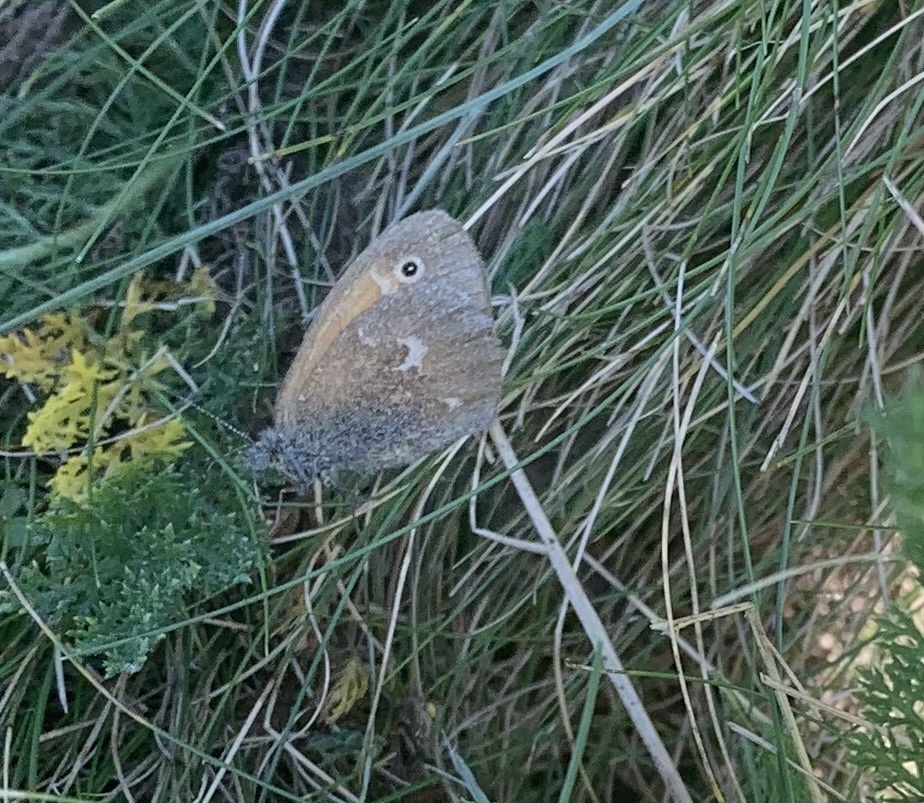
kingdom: Animalia
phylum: Arthropoda
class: Insecta
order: Lepidoptera
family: Nymphalidae
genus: Coenonympha
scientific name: Coenonympha california
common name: Common ringlet
